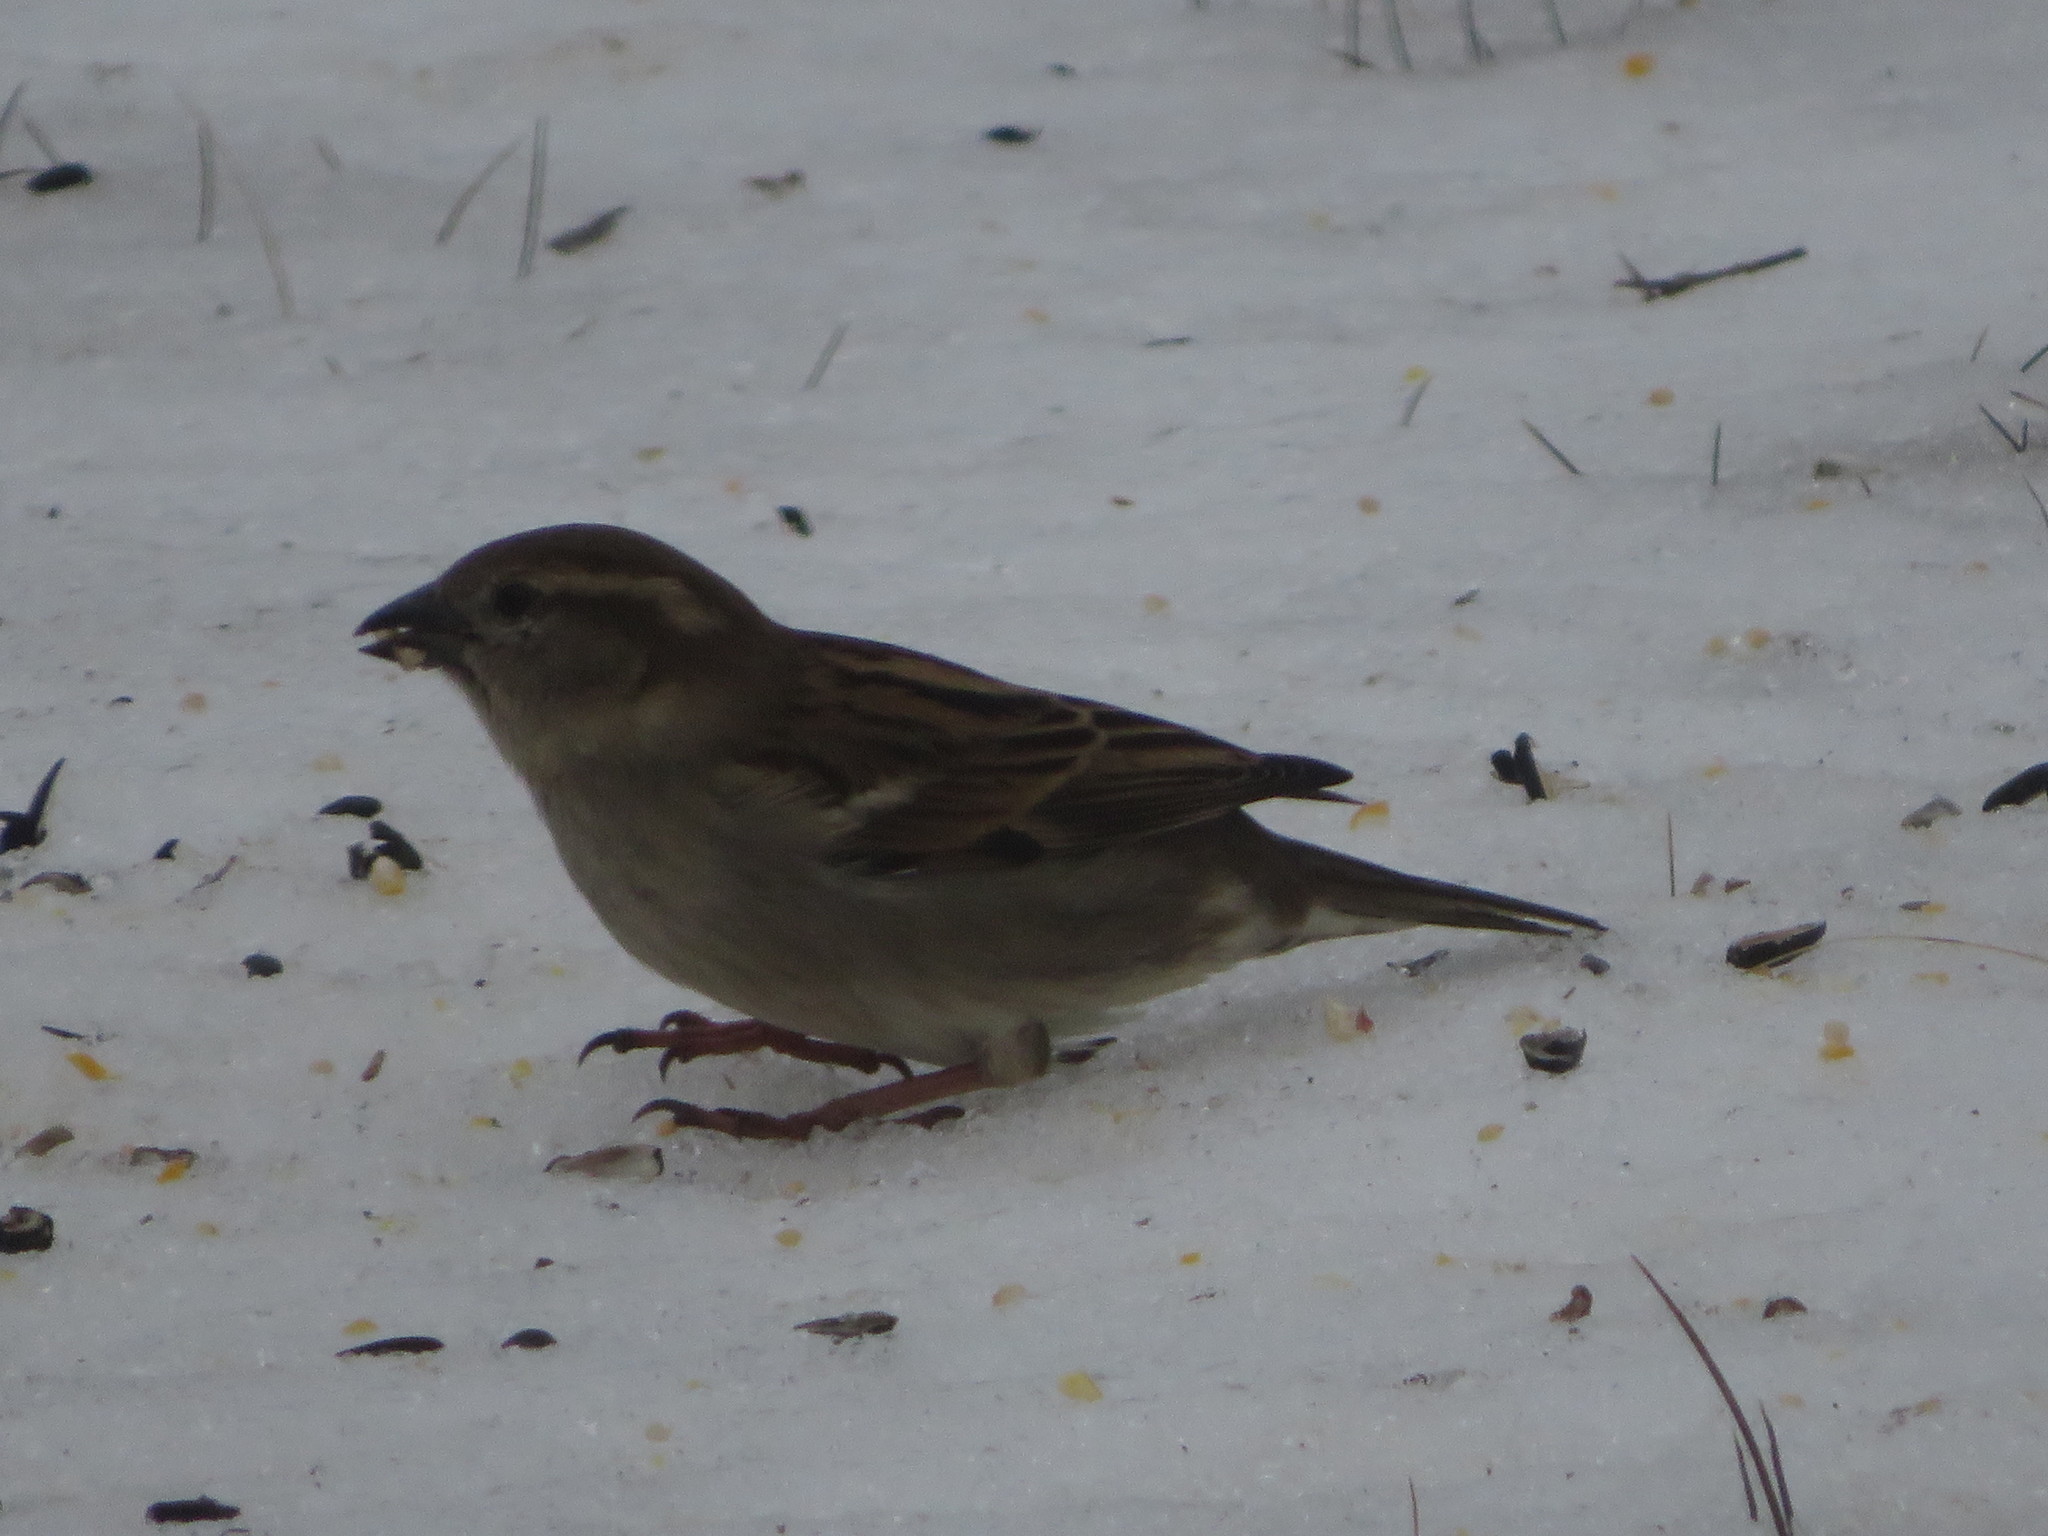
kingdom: Animalia
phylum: Chordata
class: Aves
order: Passeriformes
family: Passeridae
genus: Passer
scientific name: Passer domesticus
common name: House sparrow
